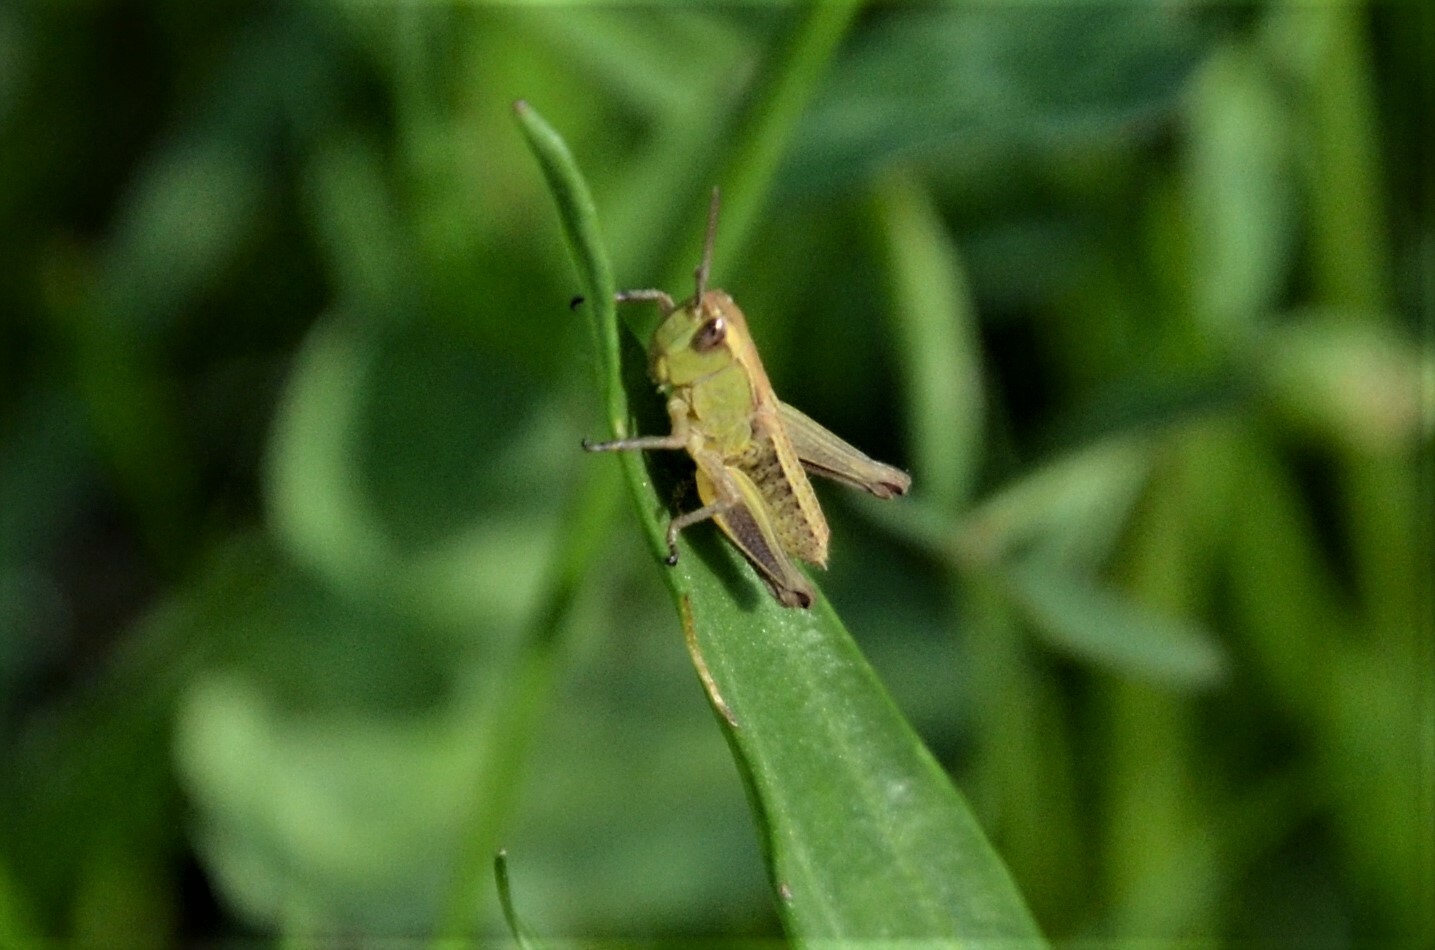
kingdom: Animalia
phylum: Arthropoda
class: Insecta
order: Orthoptera
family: Acrididae
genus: Pseudochorthippus
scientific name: Pseudochorthippus parallelus
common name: Meadow grasshopper
